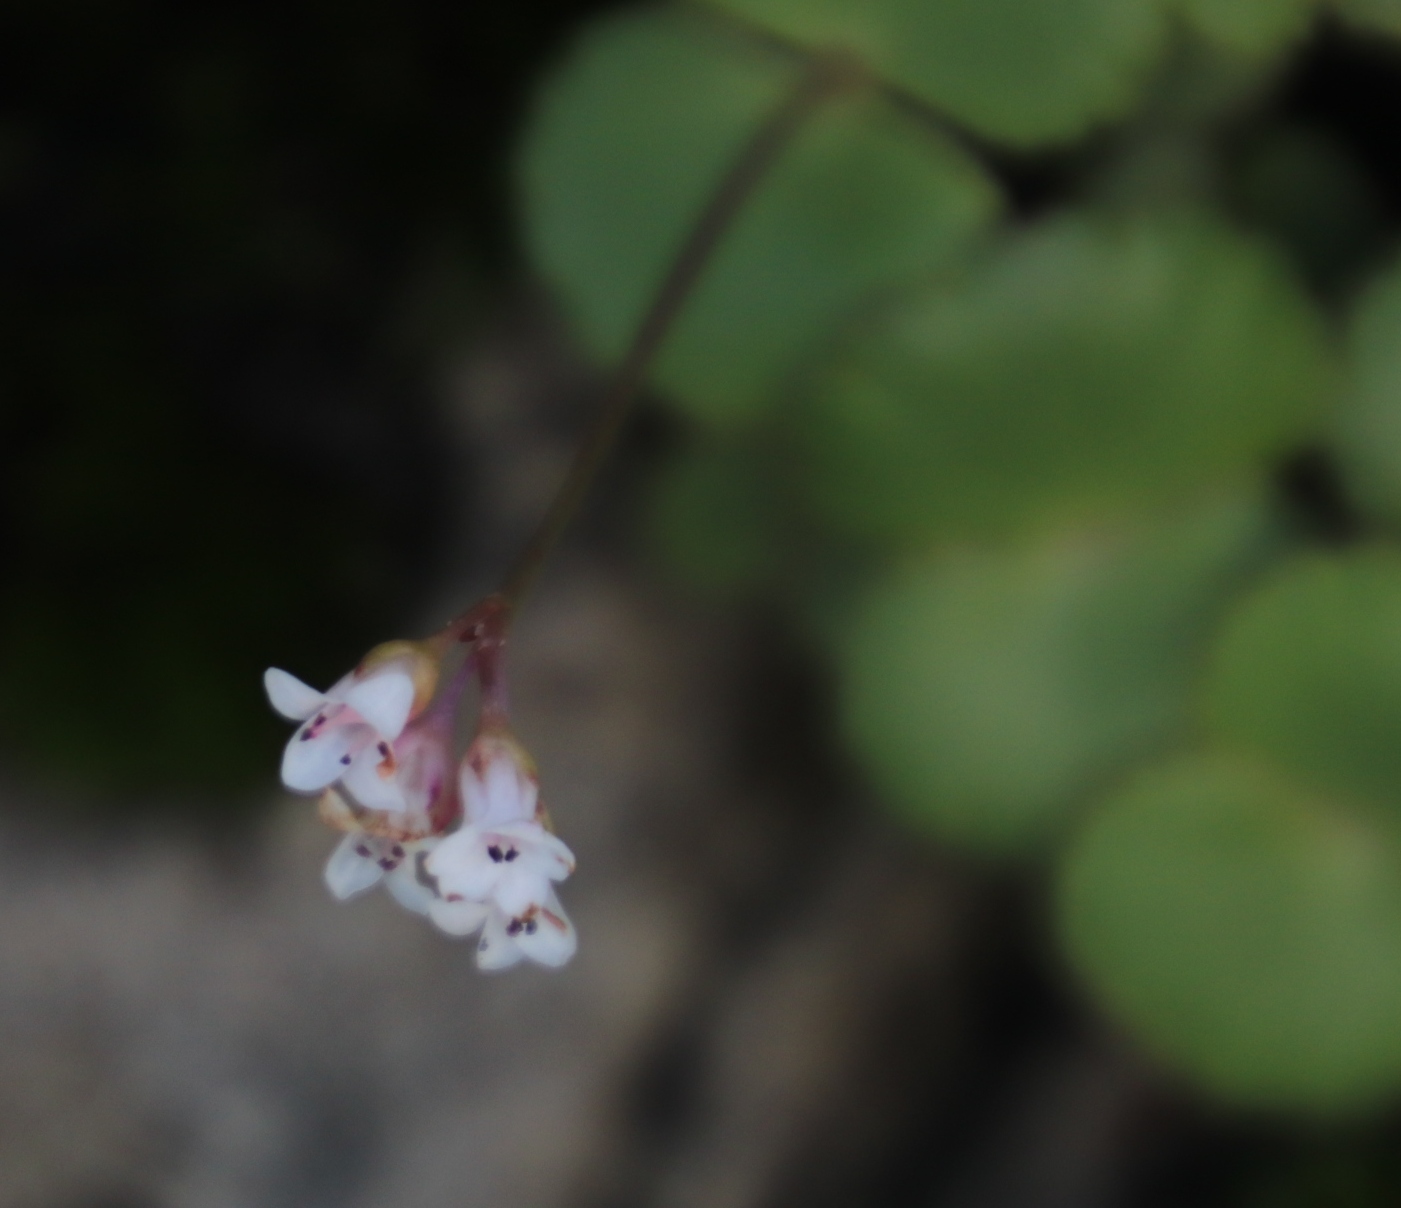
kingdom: Plantae
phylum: Tracheophyta
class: Magnoliopsida
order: Saxifragales
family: Crassulaceae
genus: Crassula
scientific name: Crassula saxifraga
